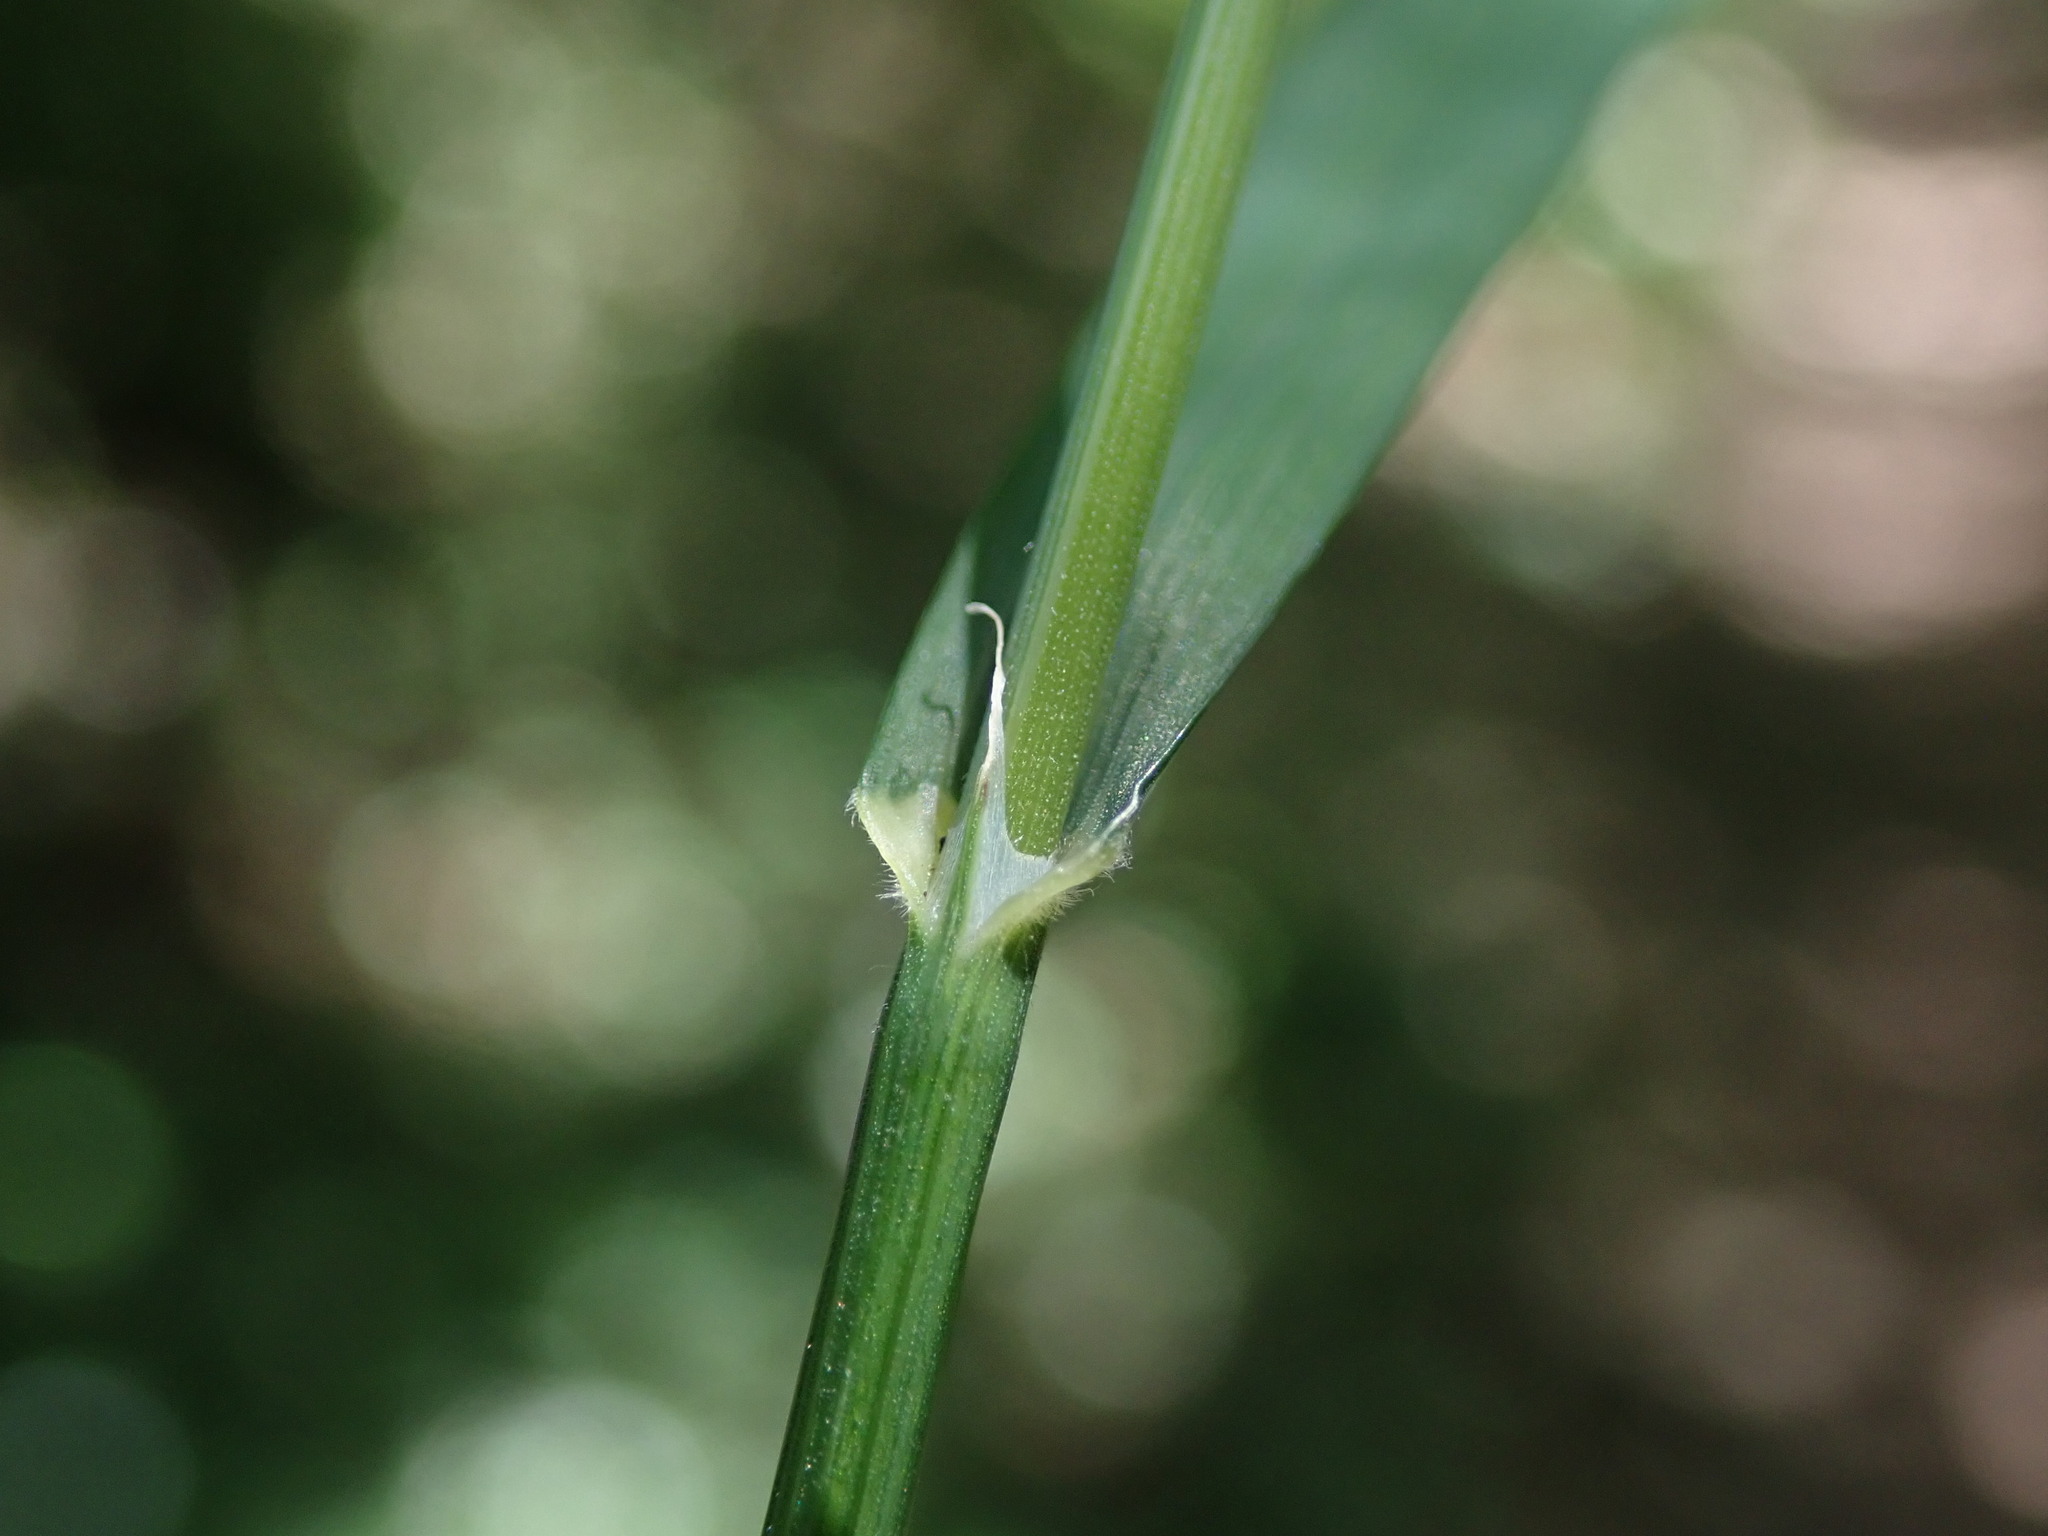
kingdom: Plantae
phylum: Tracheophyta
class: Liliopsida
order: Poales
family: Poaceae
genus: Melica
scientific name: Melica uniflora
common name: Wood melick
